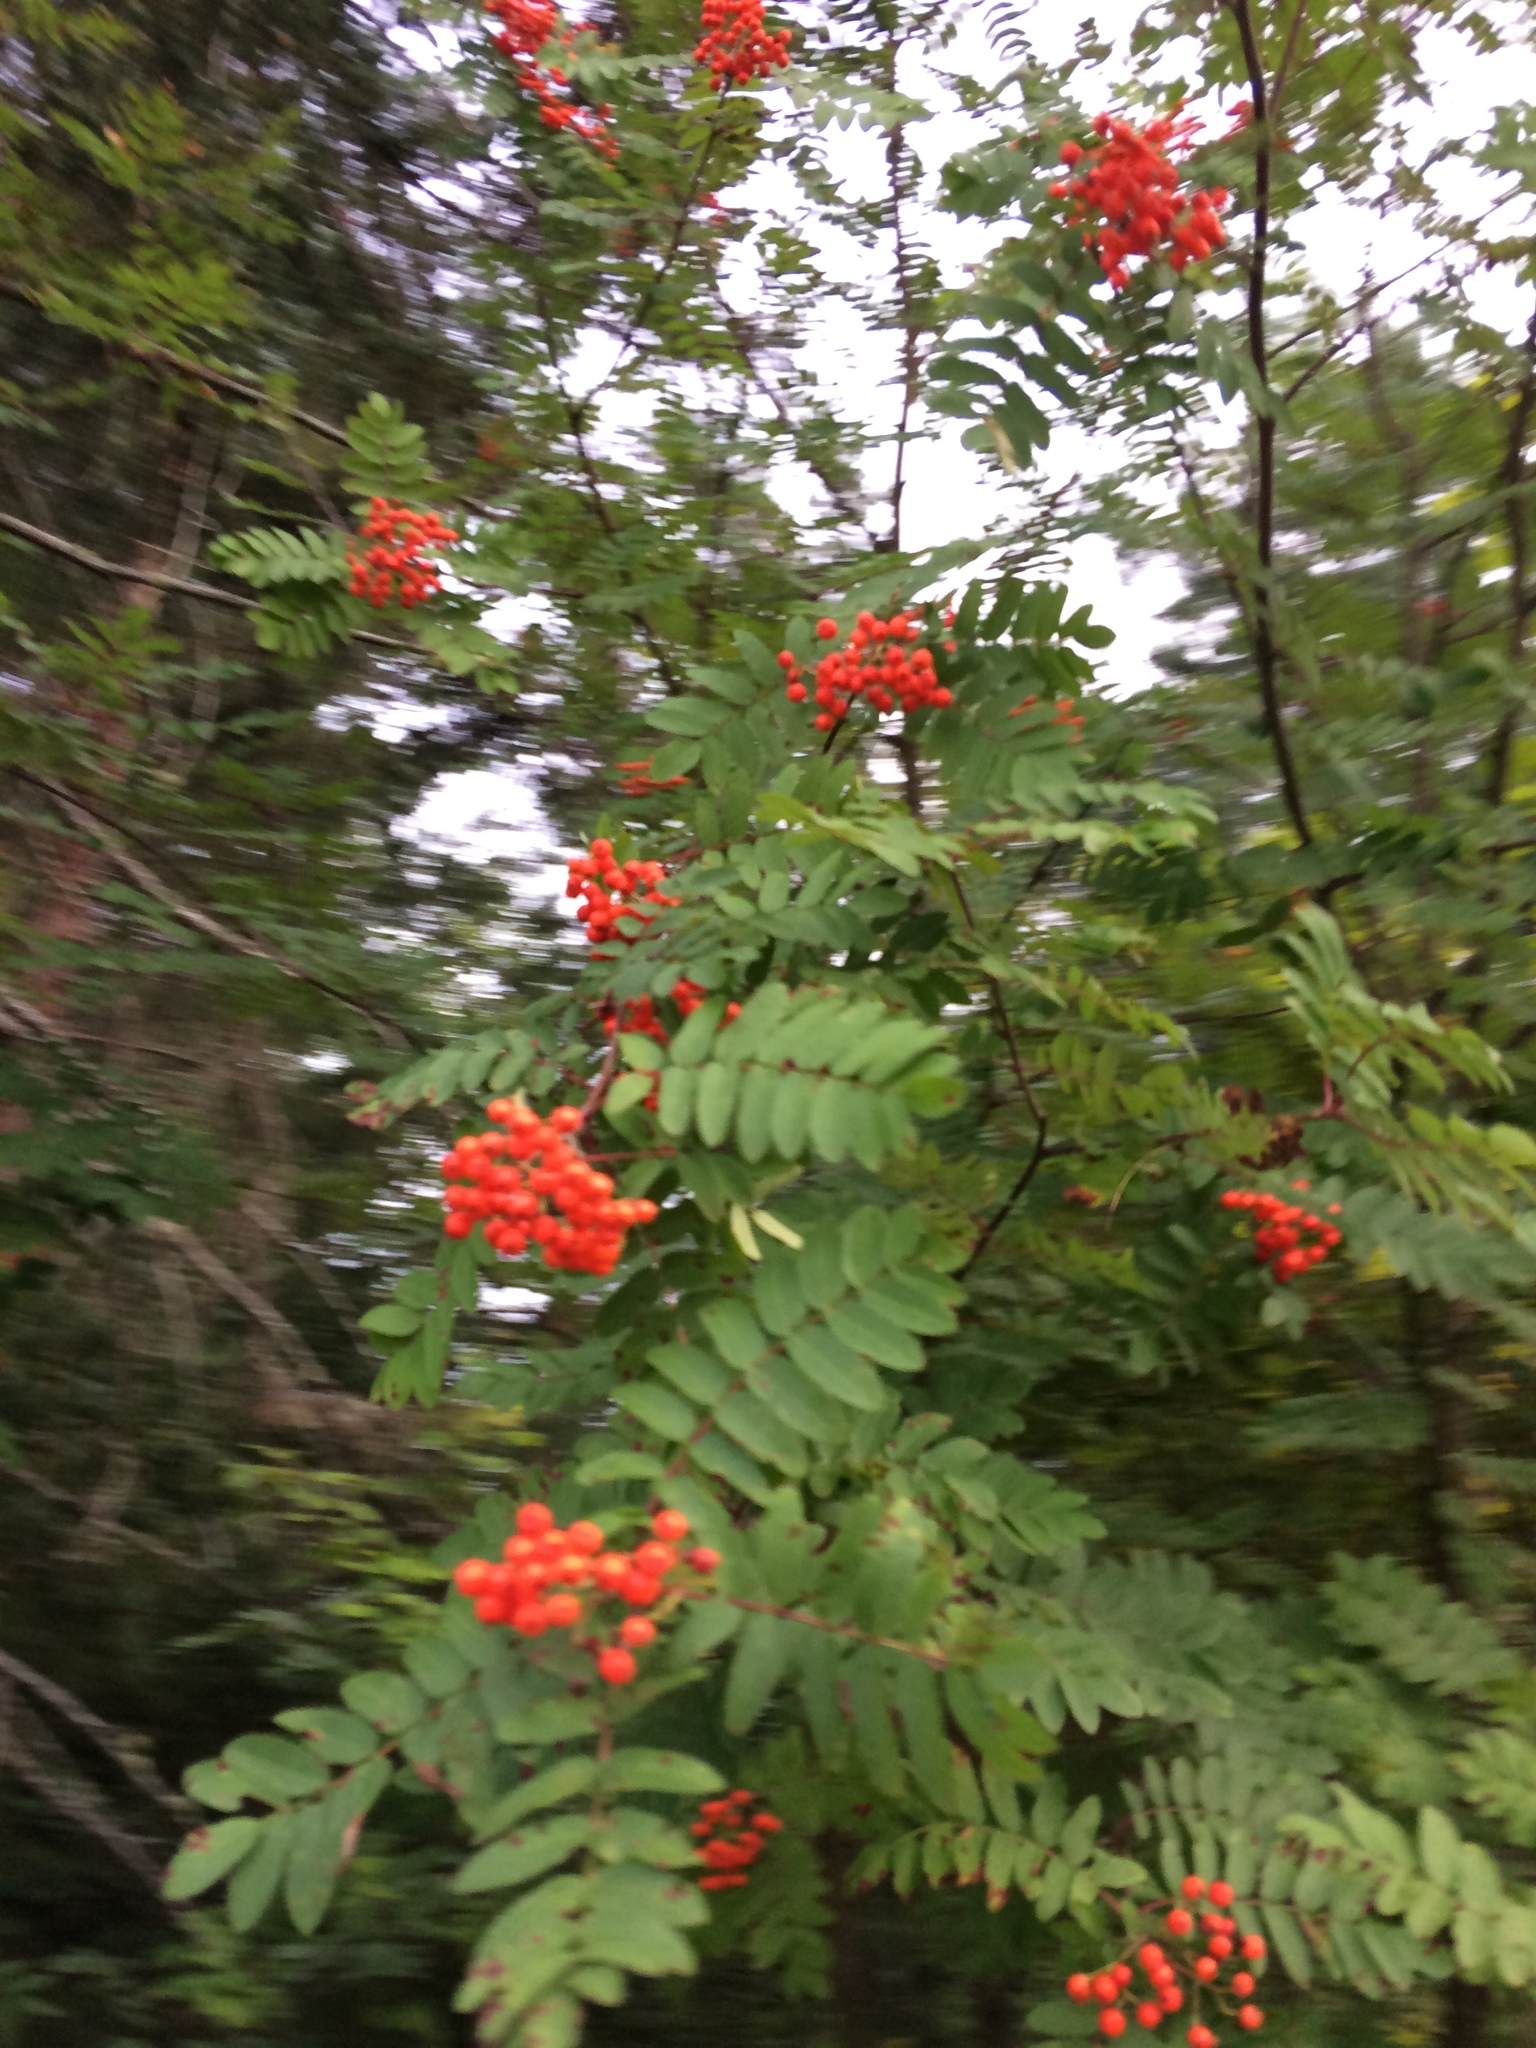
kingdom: Plantae
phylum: Tracheophyta
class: Magnoliopsida
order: Rosales
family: Rosaceae
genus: Sorbus
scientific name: Sorbus aucuparia
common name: Rowan
